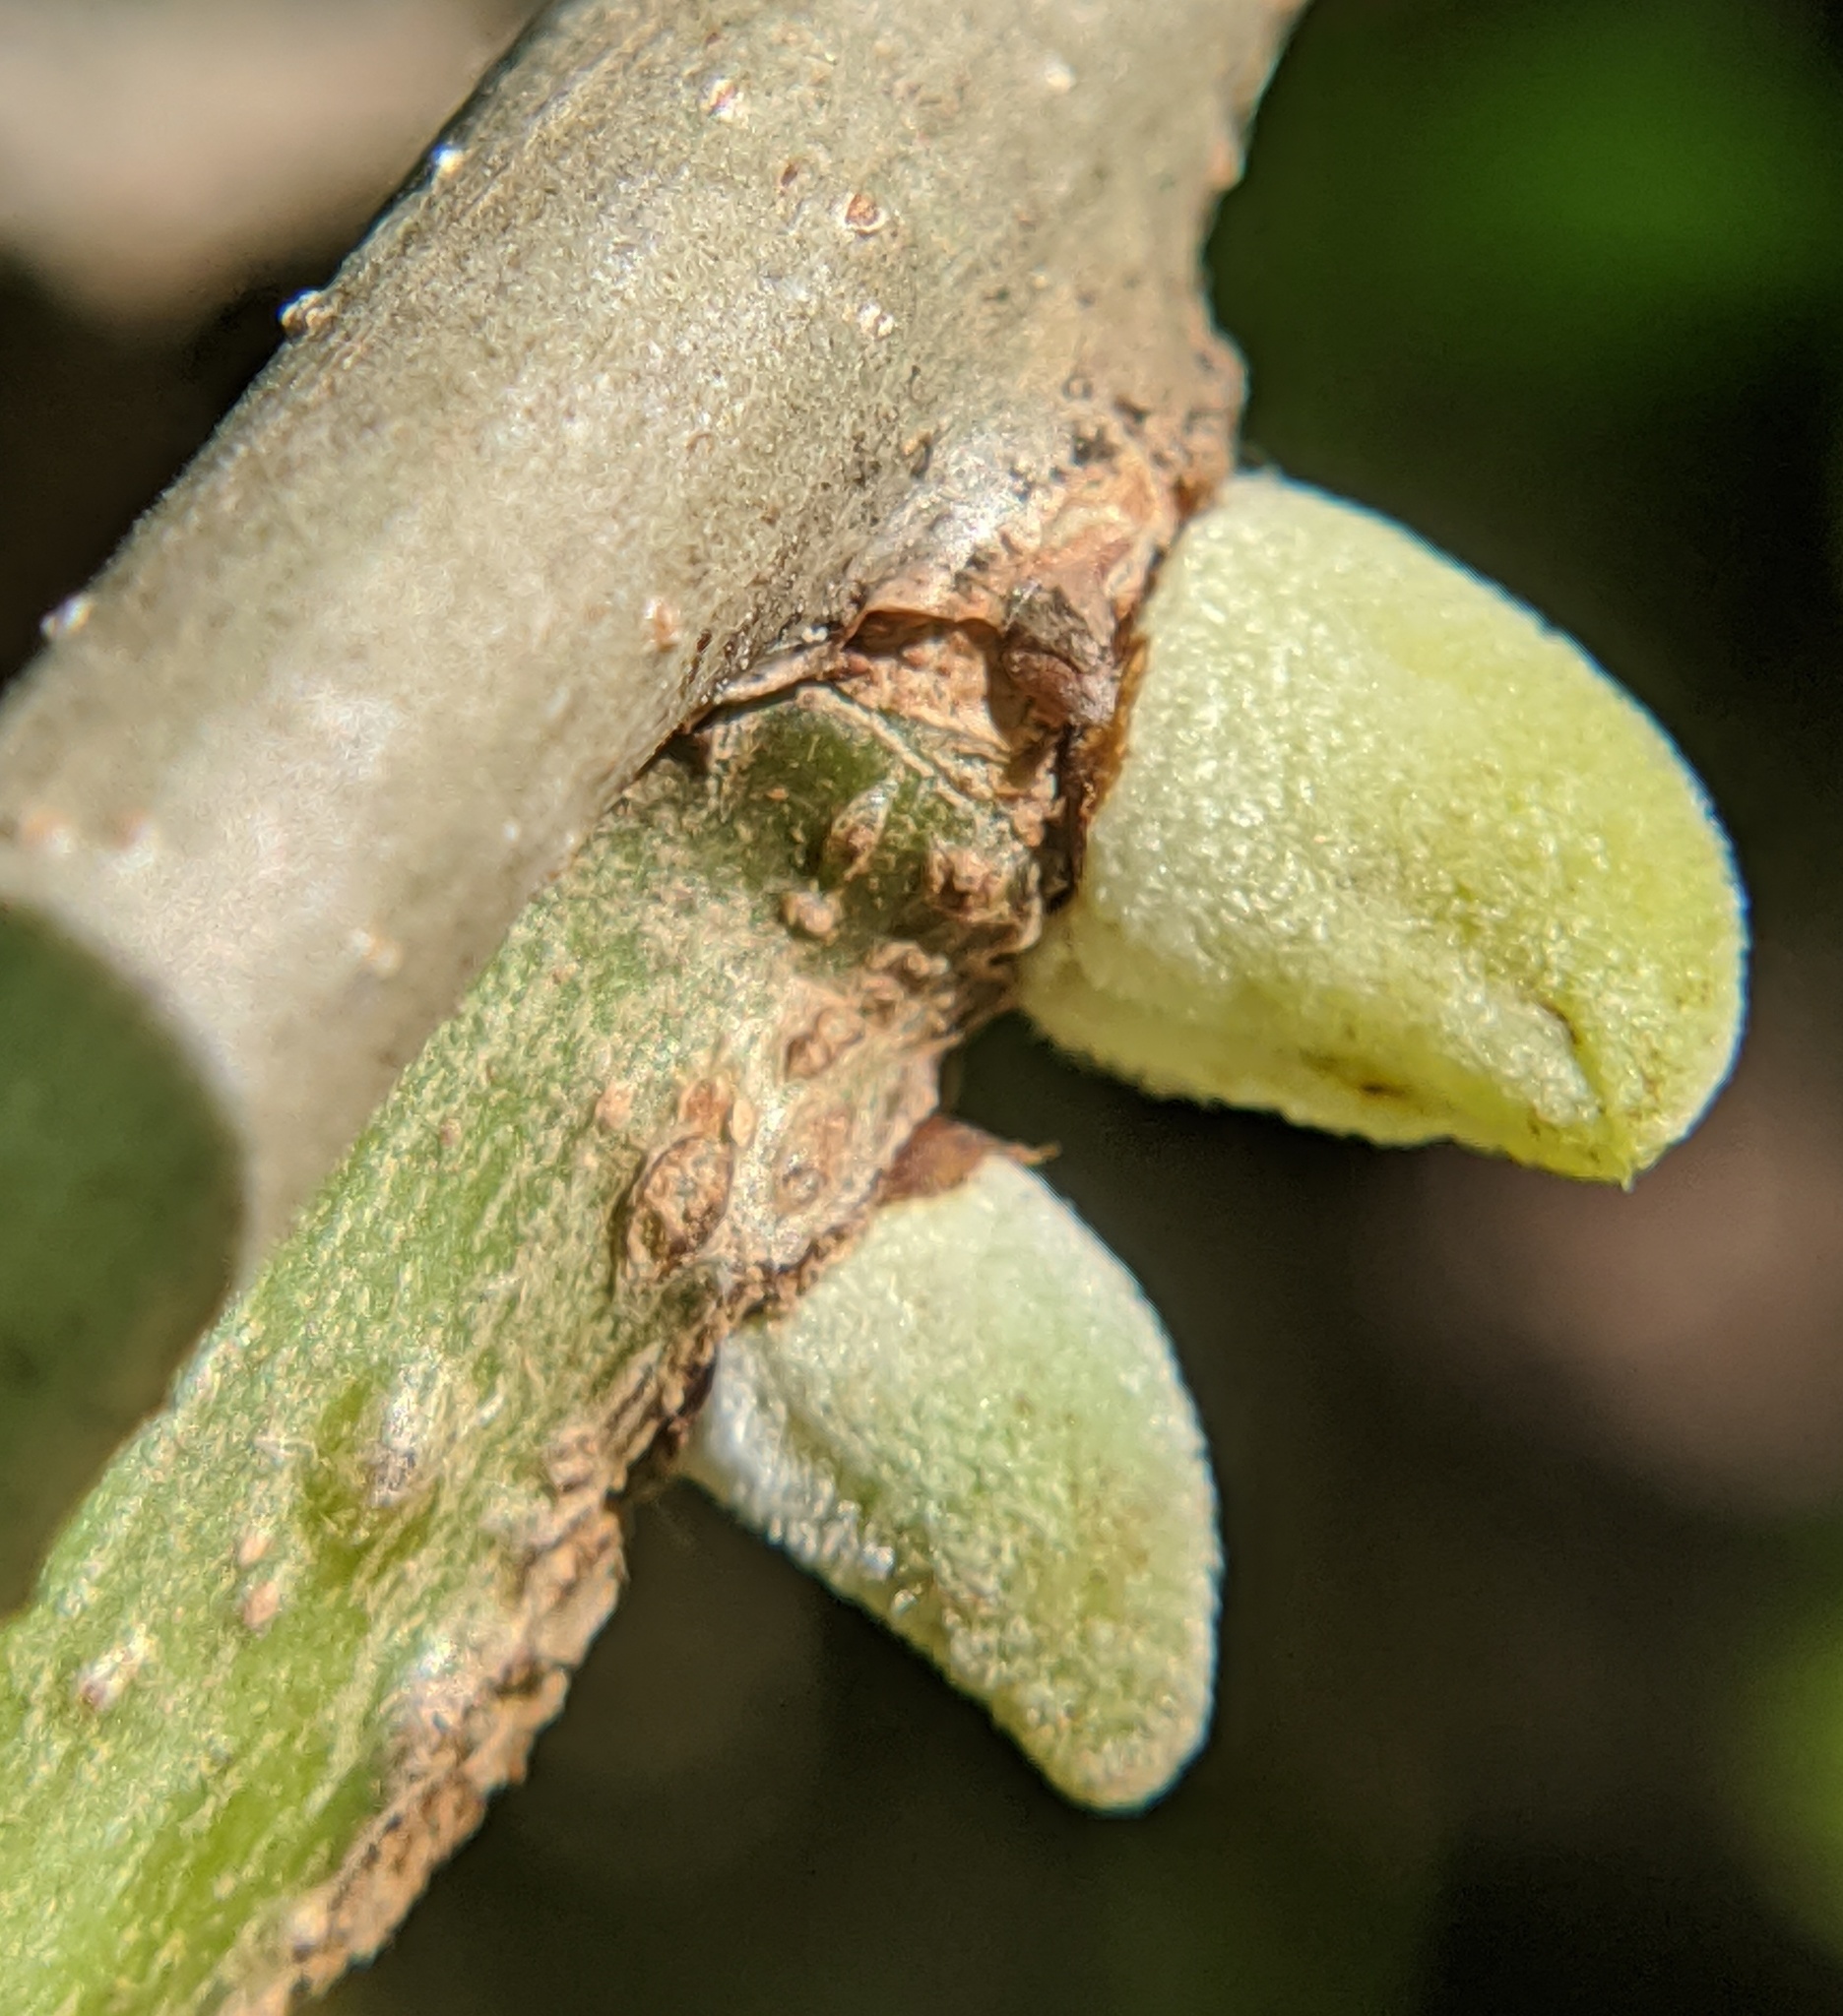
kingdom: Animalia
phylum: Arthropoda
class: Insecta
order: Hymenoptera
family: Cynipidae
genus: Disholcaspis
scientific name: Disholcaspis
